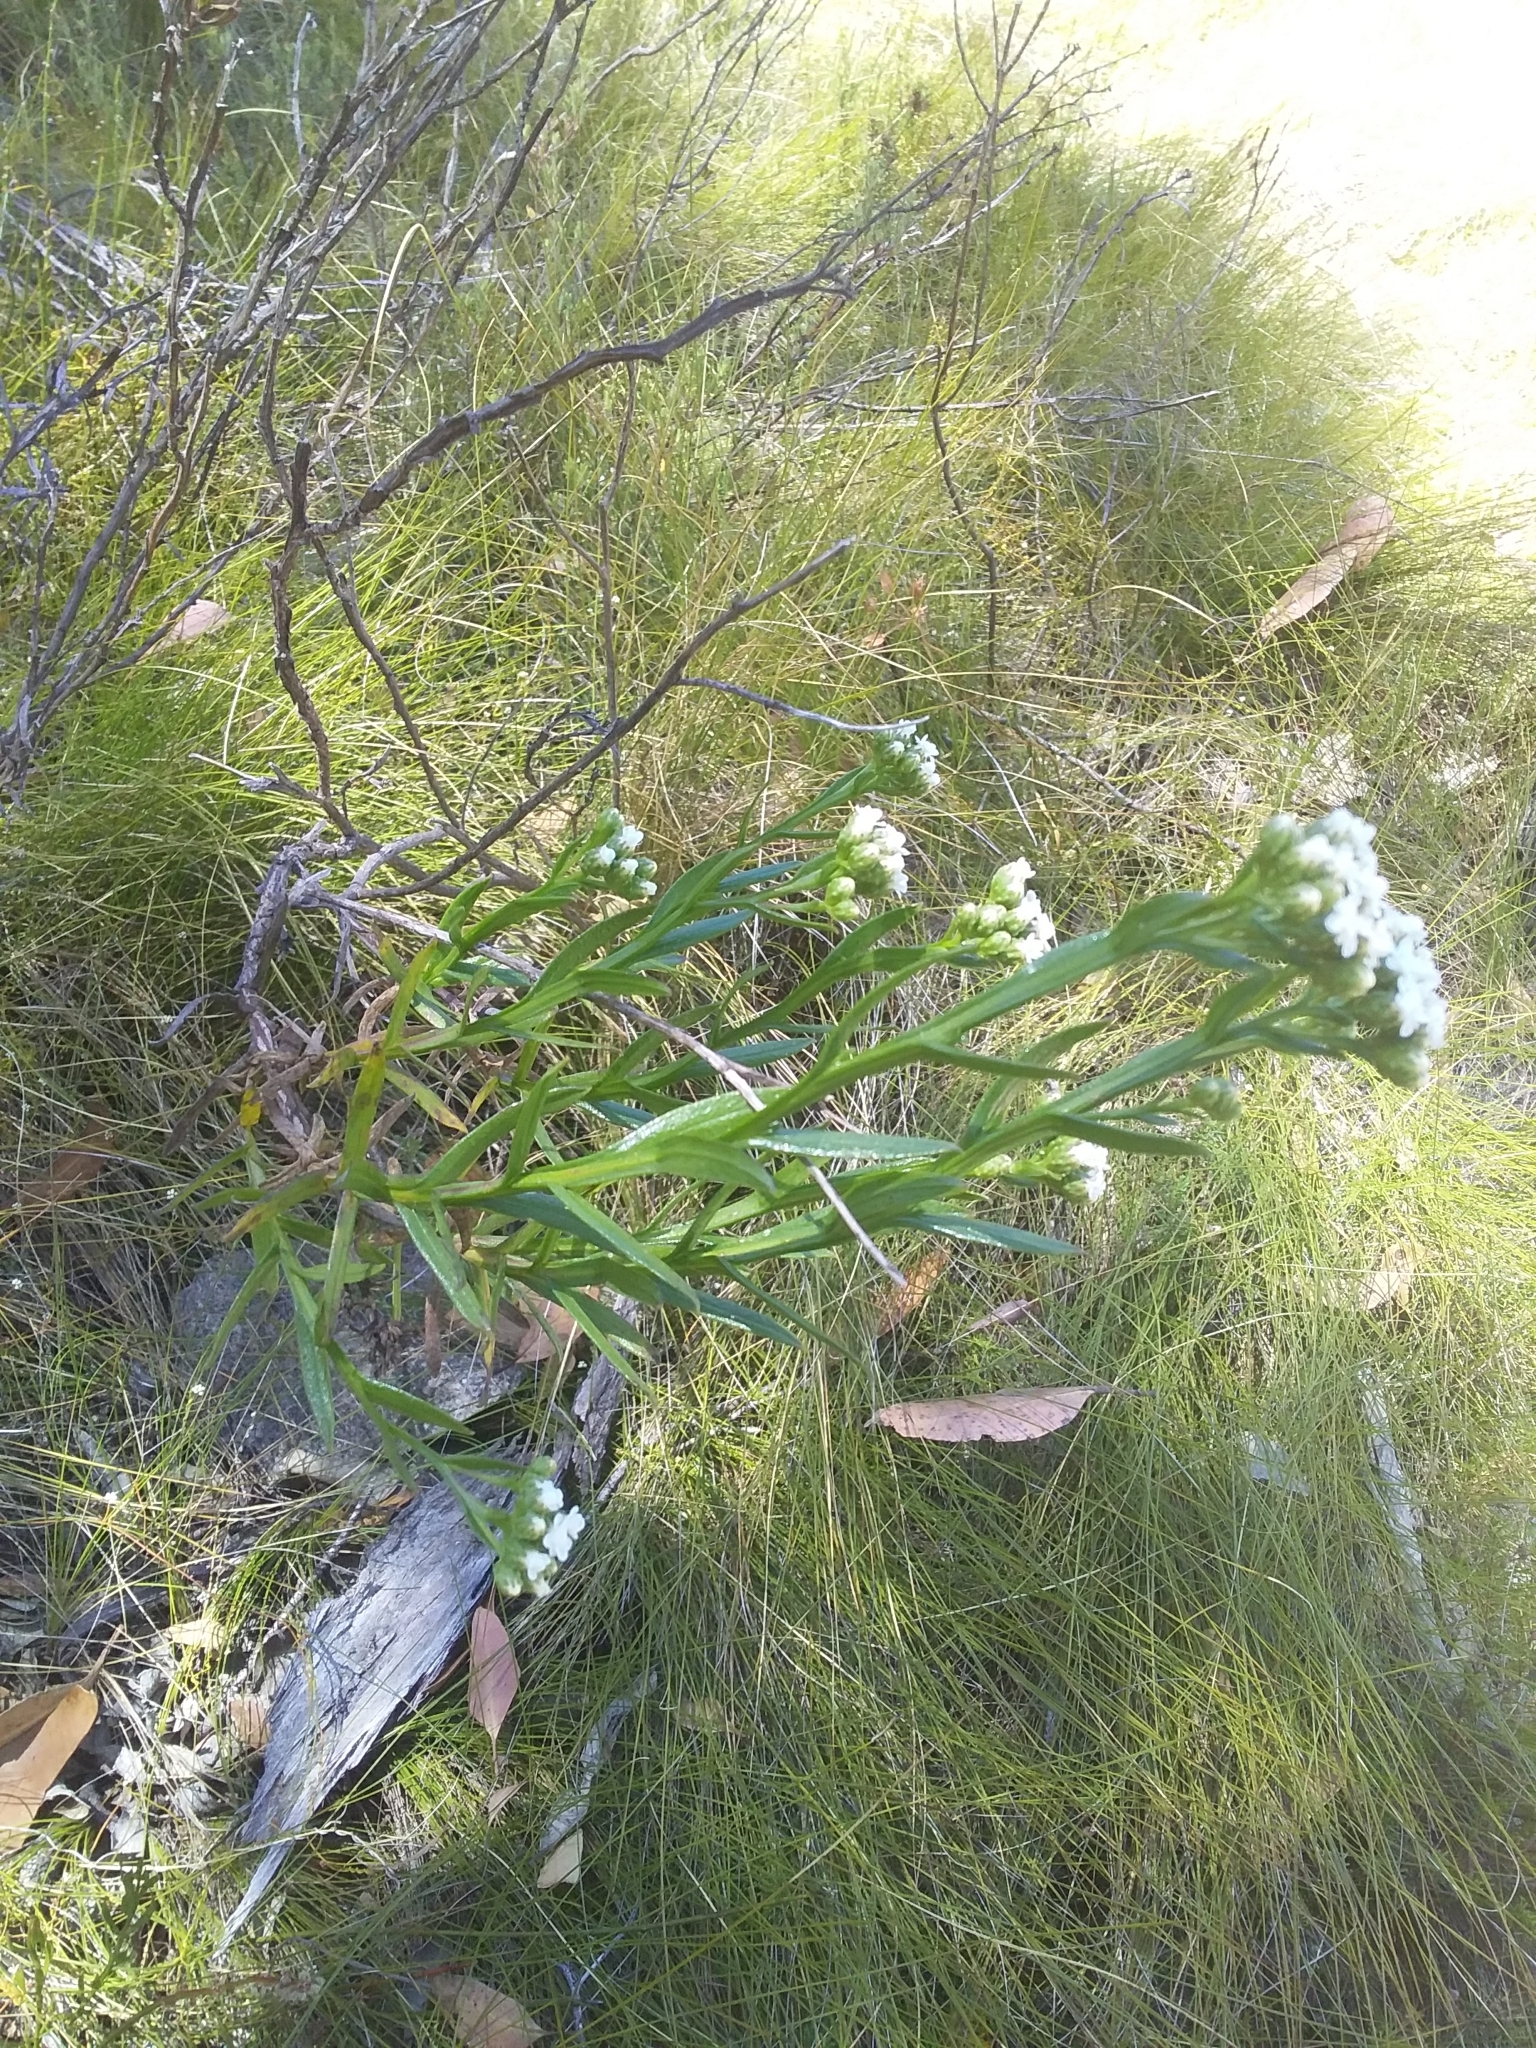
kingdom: Plantae
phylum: Tracheophyta
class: Magnoliopsida
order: Asterales
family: Asteraceae
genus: Ixodia
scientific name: Ixodia achillaeoides
